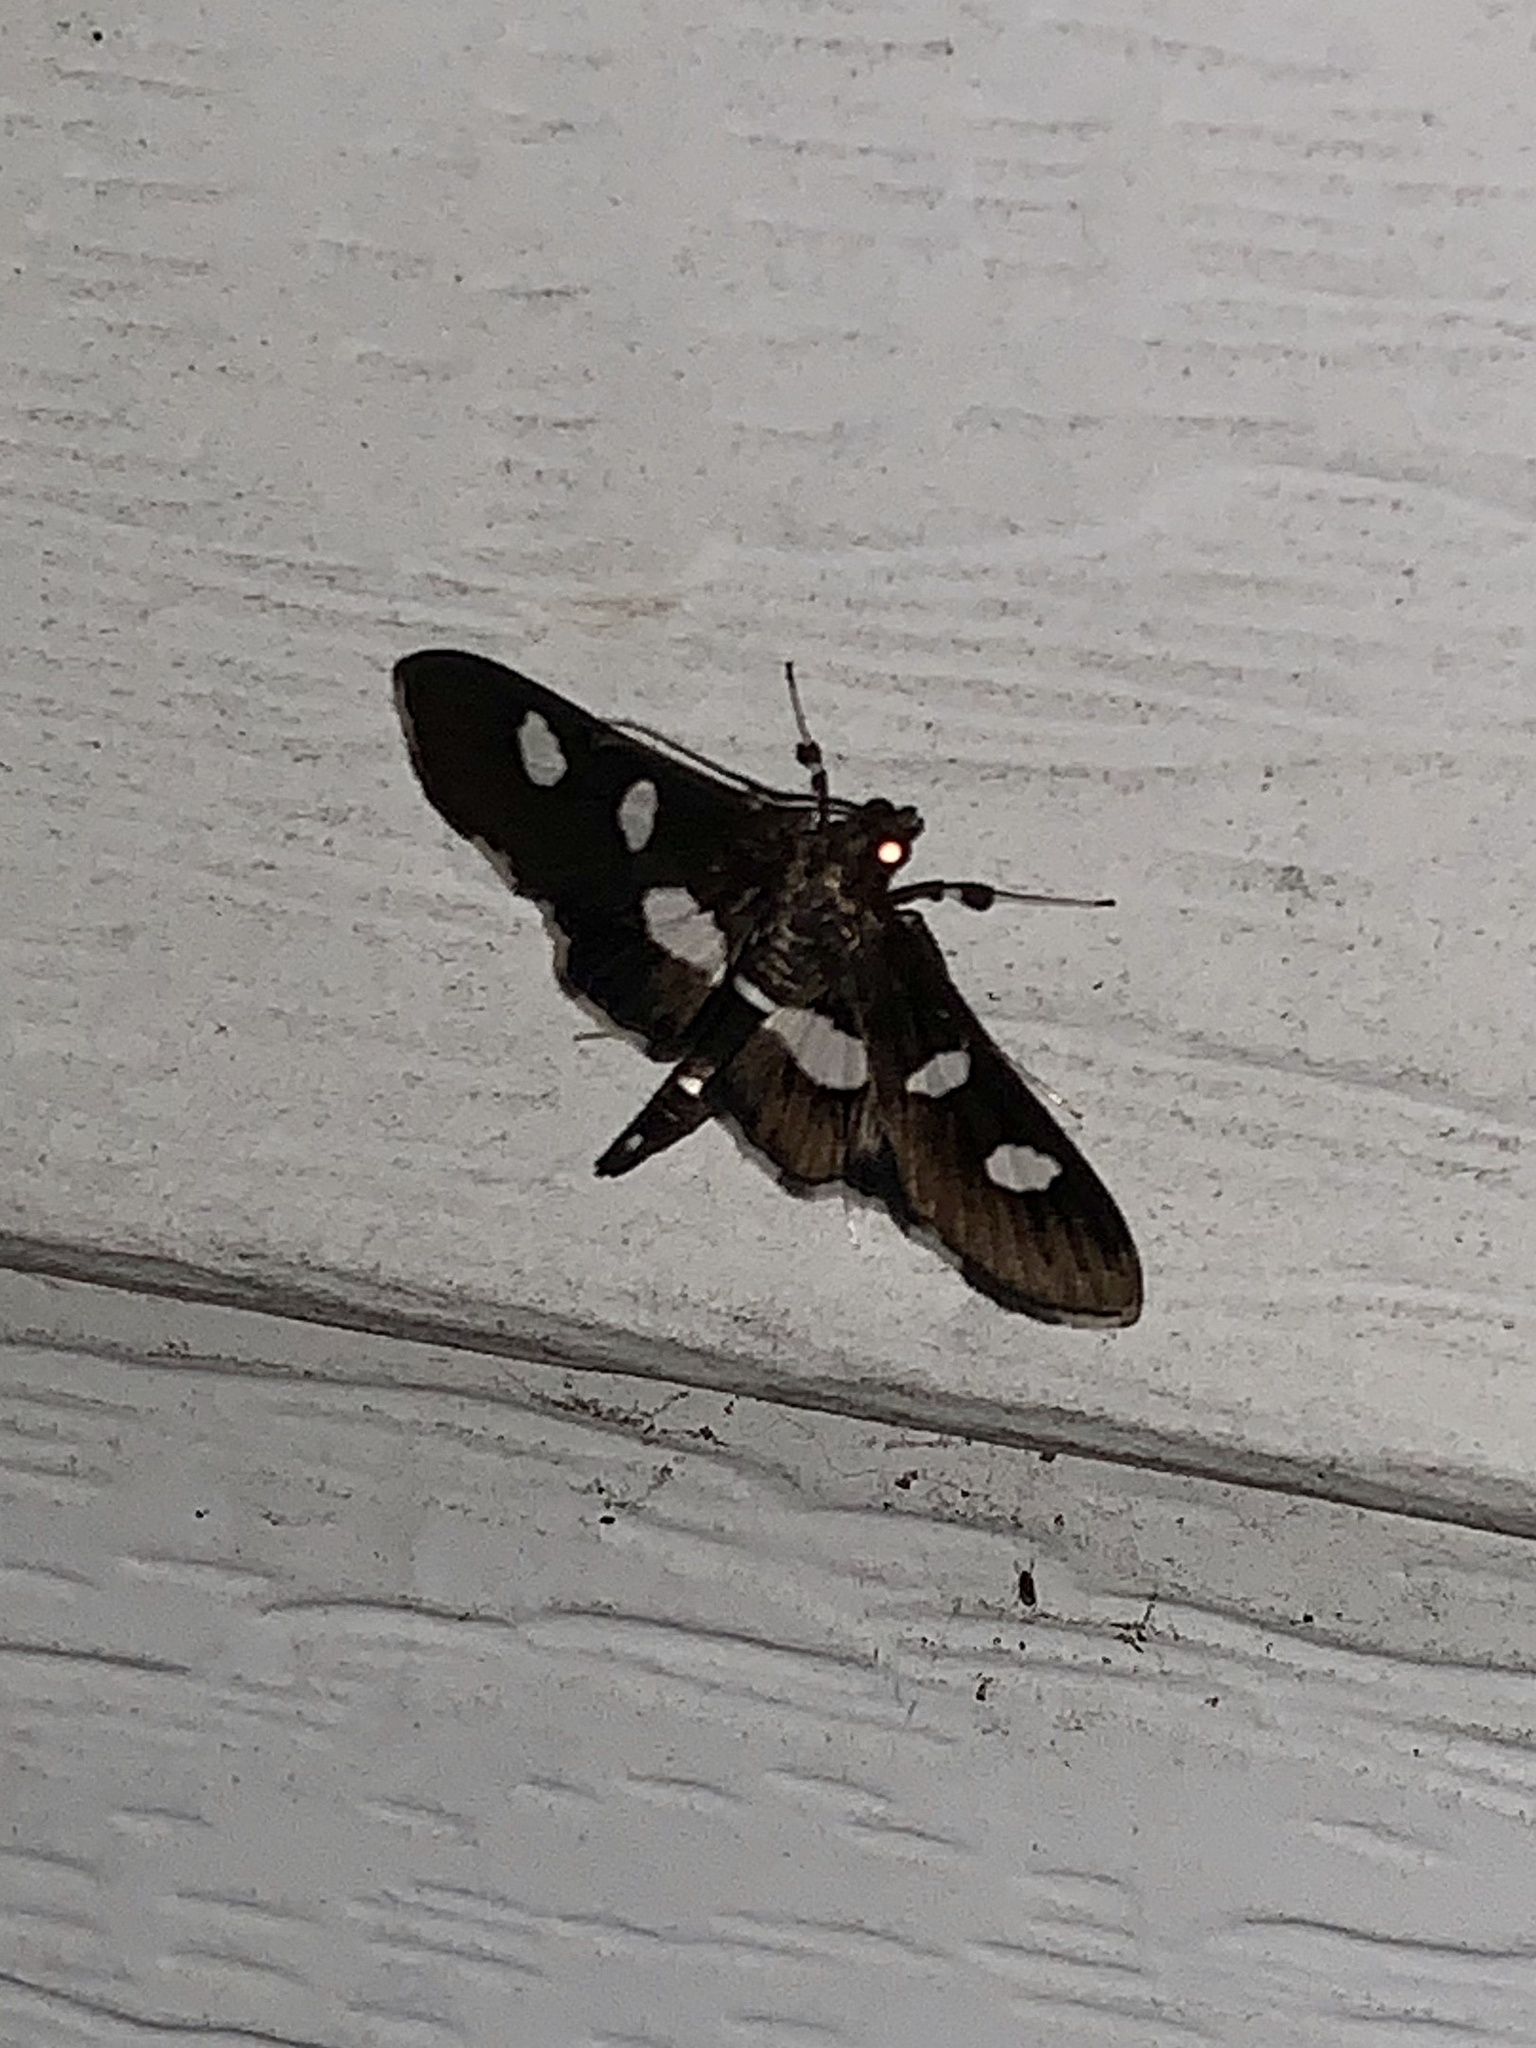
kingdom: Animalia
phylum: Arthropoda
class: Insecta
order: Lepidoptera
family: Crambidae
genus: Desmia
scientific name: Desmia
